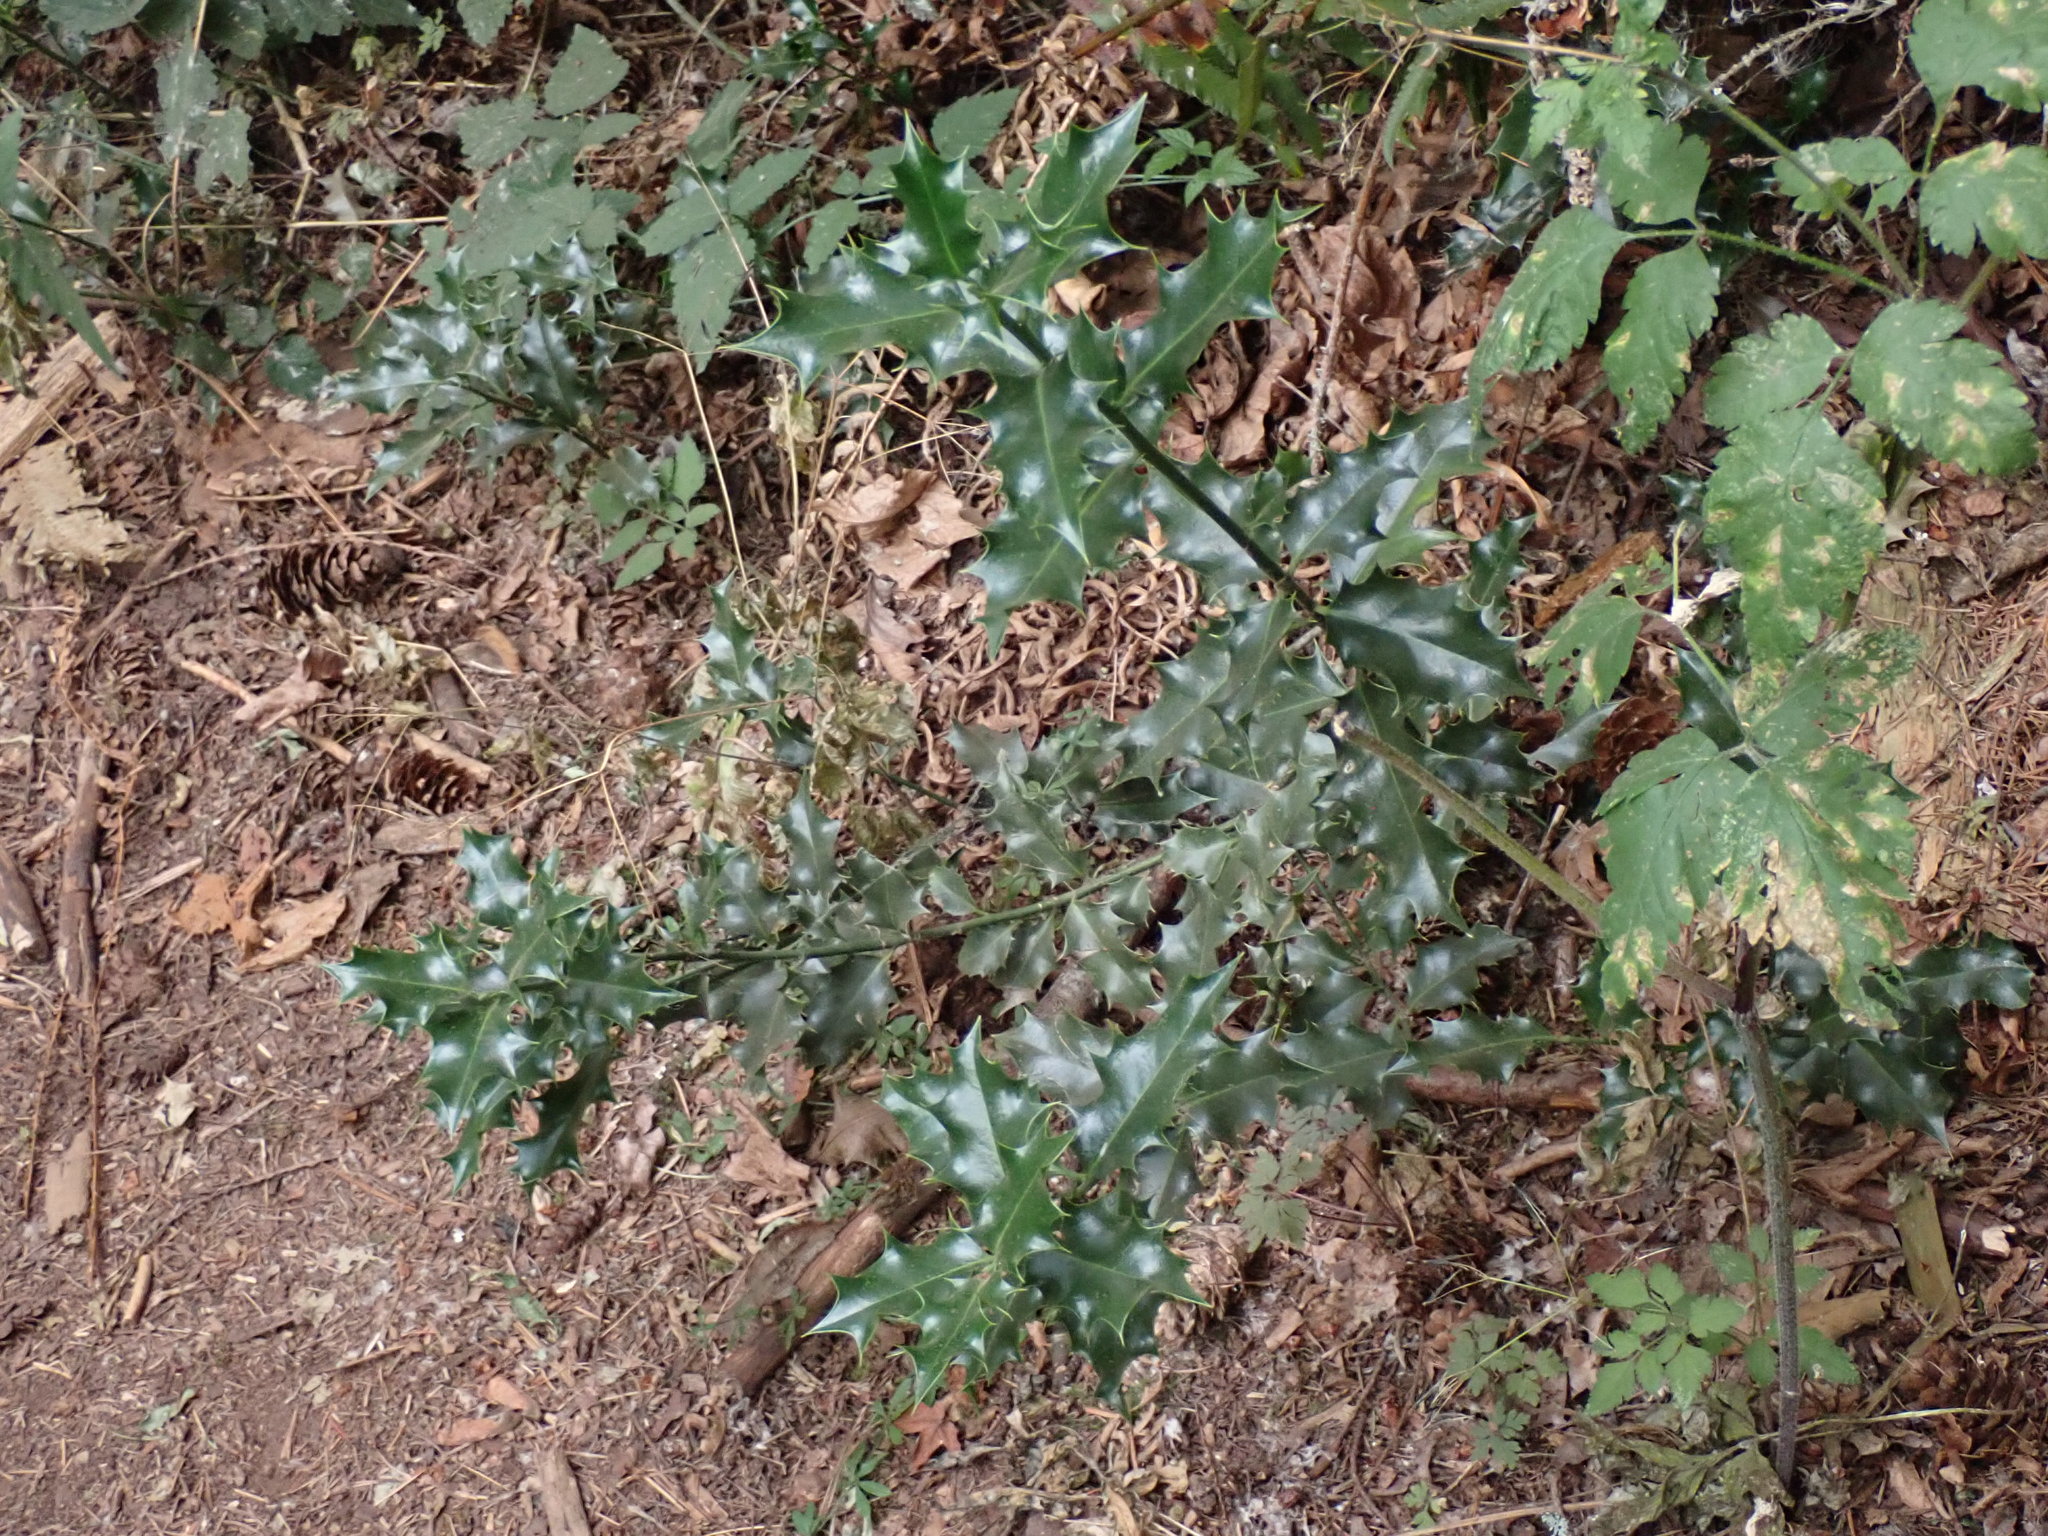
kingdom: Plantae
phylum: Tracheophyta
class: Magnoliopsida
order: Aquifoliales
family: Aquifoliaceae
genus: Ilex
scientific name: Ilex aquifolium
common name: English holly
